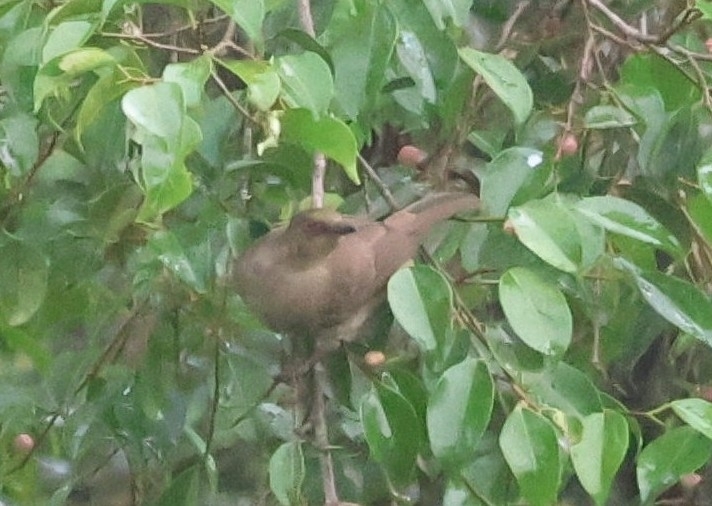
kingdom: Animalia
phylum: Chordata
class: Aves
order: Passeriformes
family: Pycnonotidae
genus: Pycnonotus
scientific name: Pycnonotus brunneus
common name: Asian red-eyed bulbul
